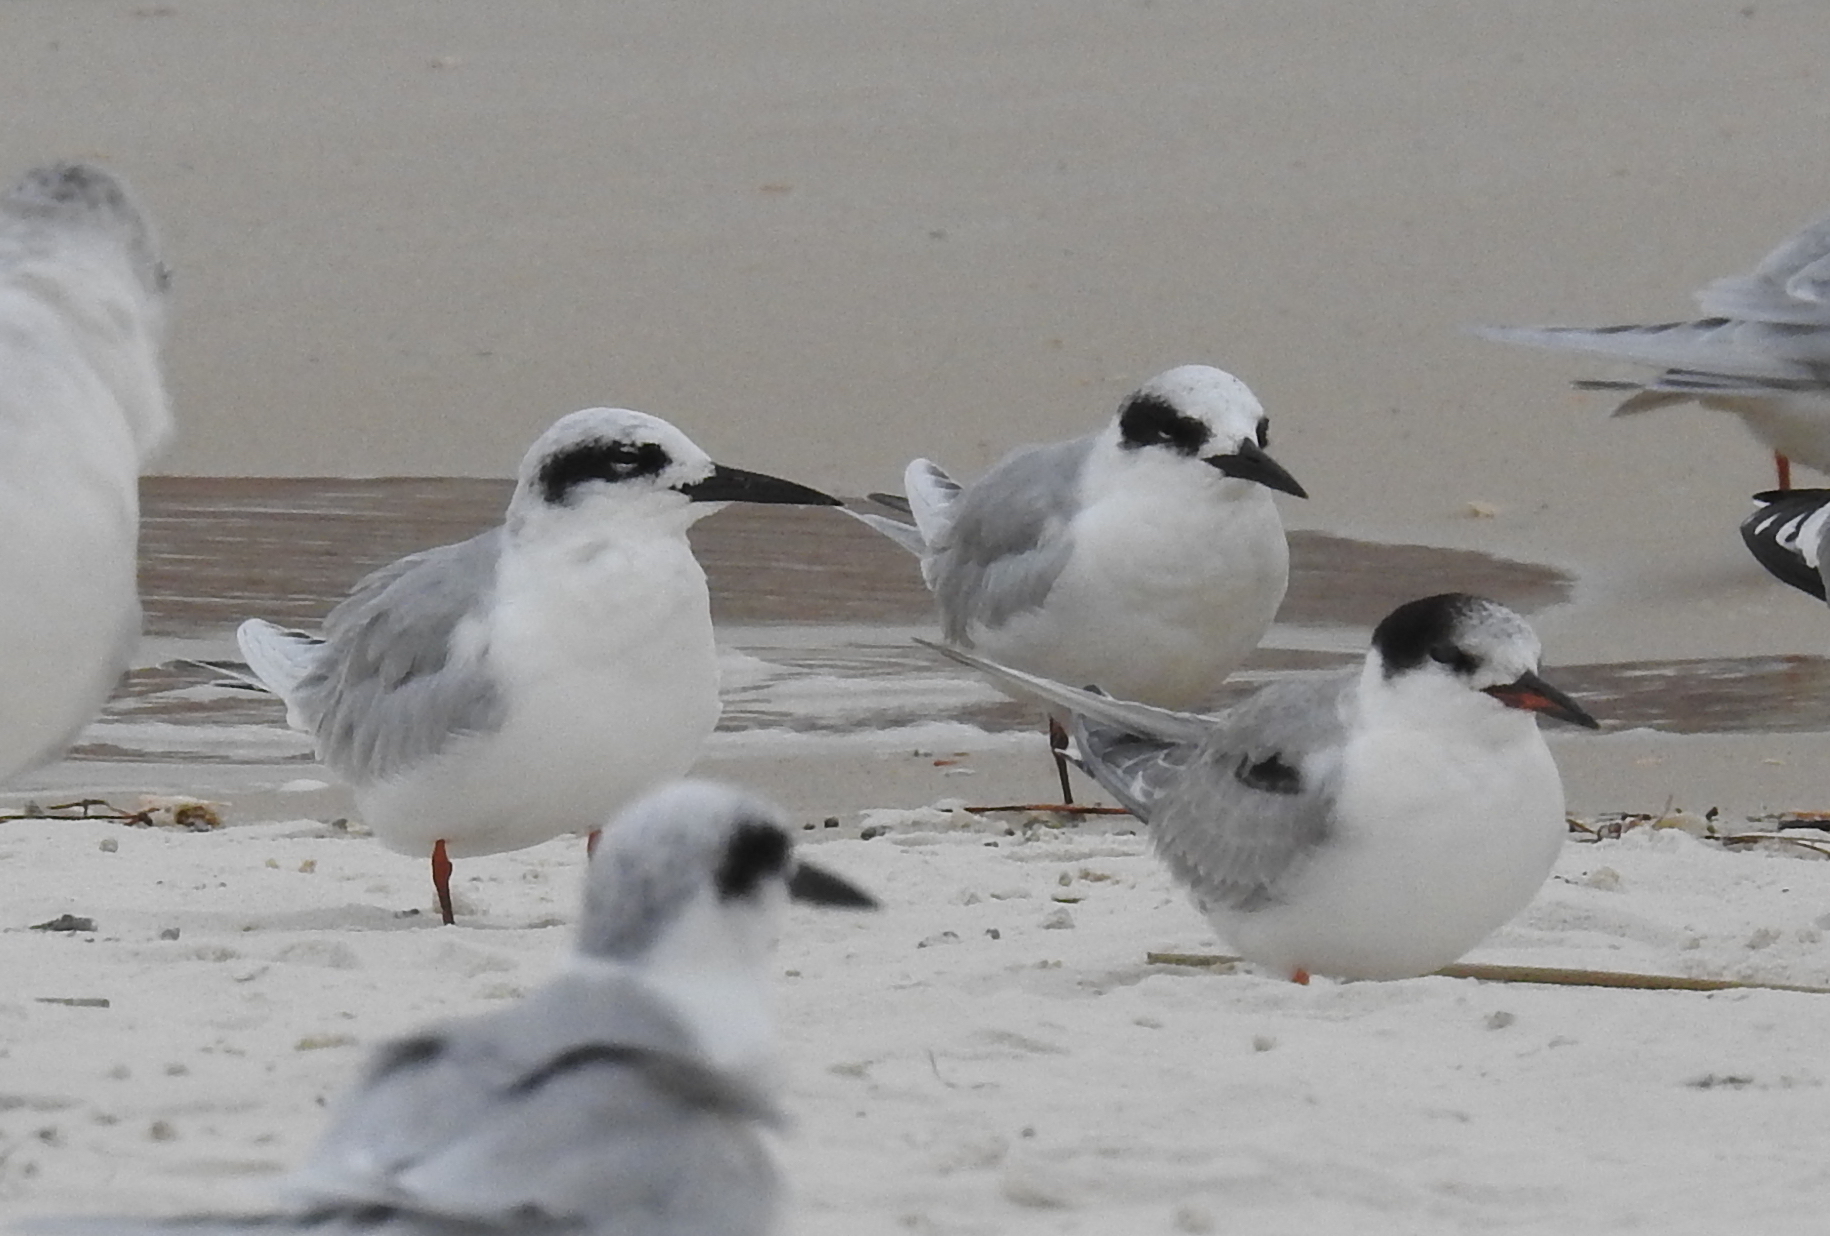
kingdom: Animalia
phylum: Chordata
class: Aves
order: Charadriiformes
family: Laridae
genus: Sterna
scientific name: Sterna forsteri
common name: Forster's tern
